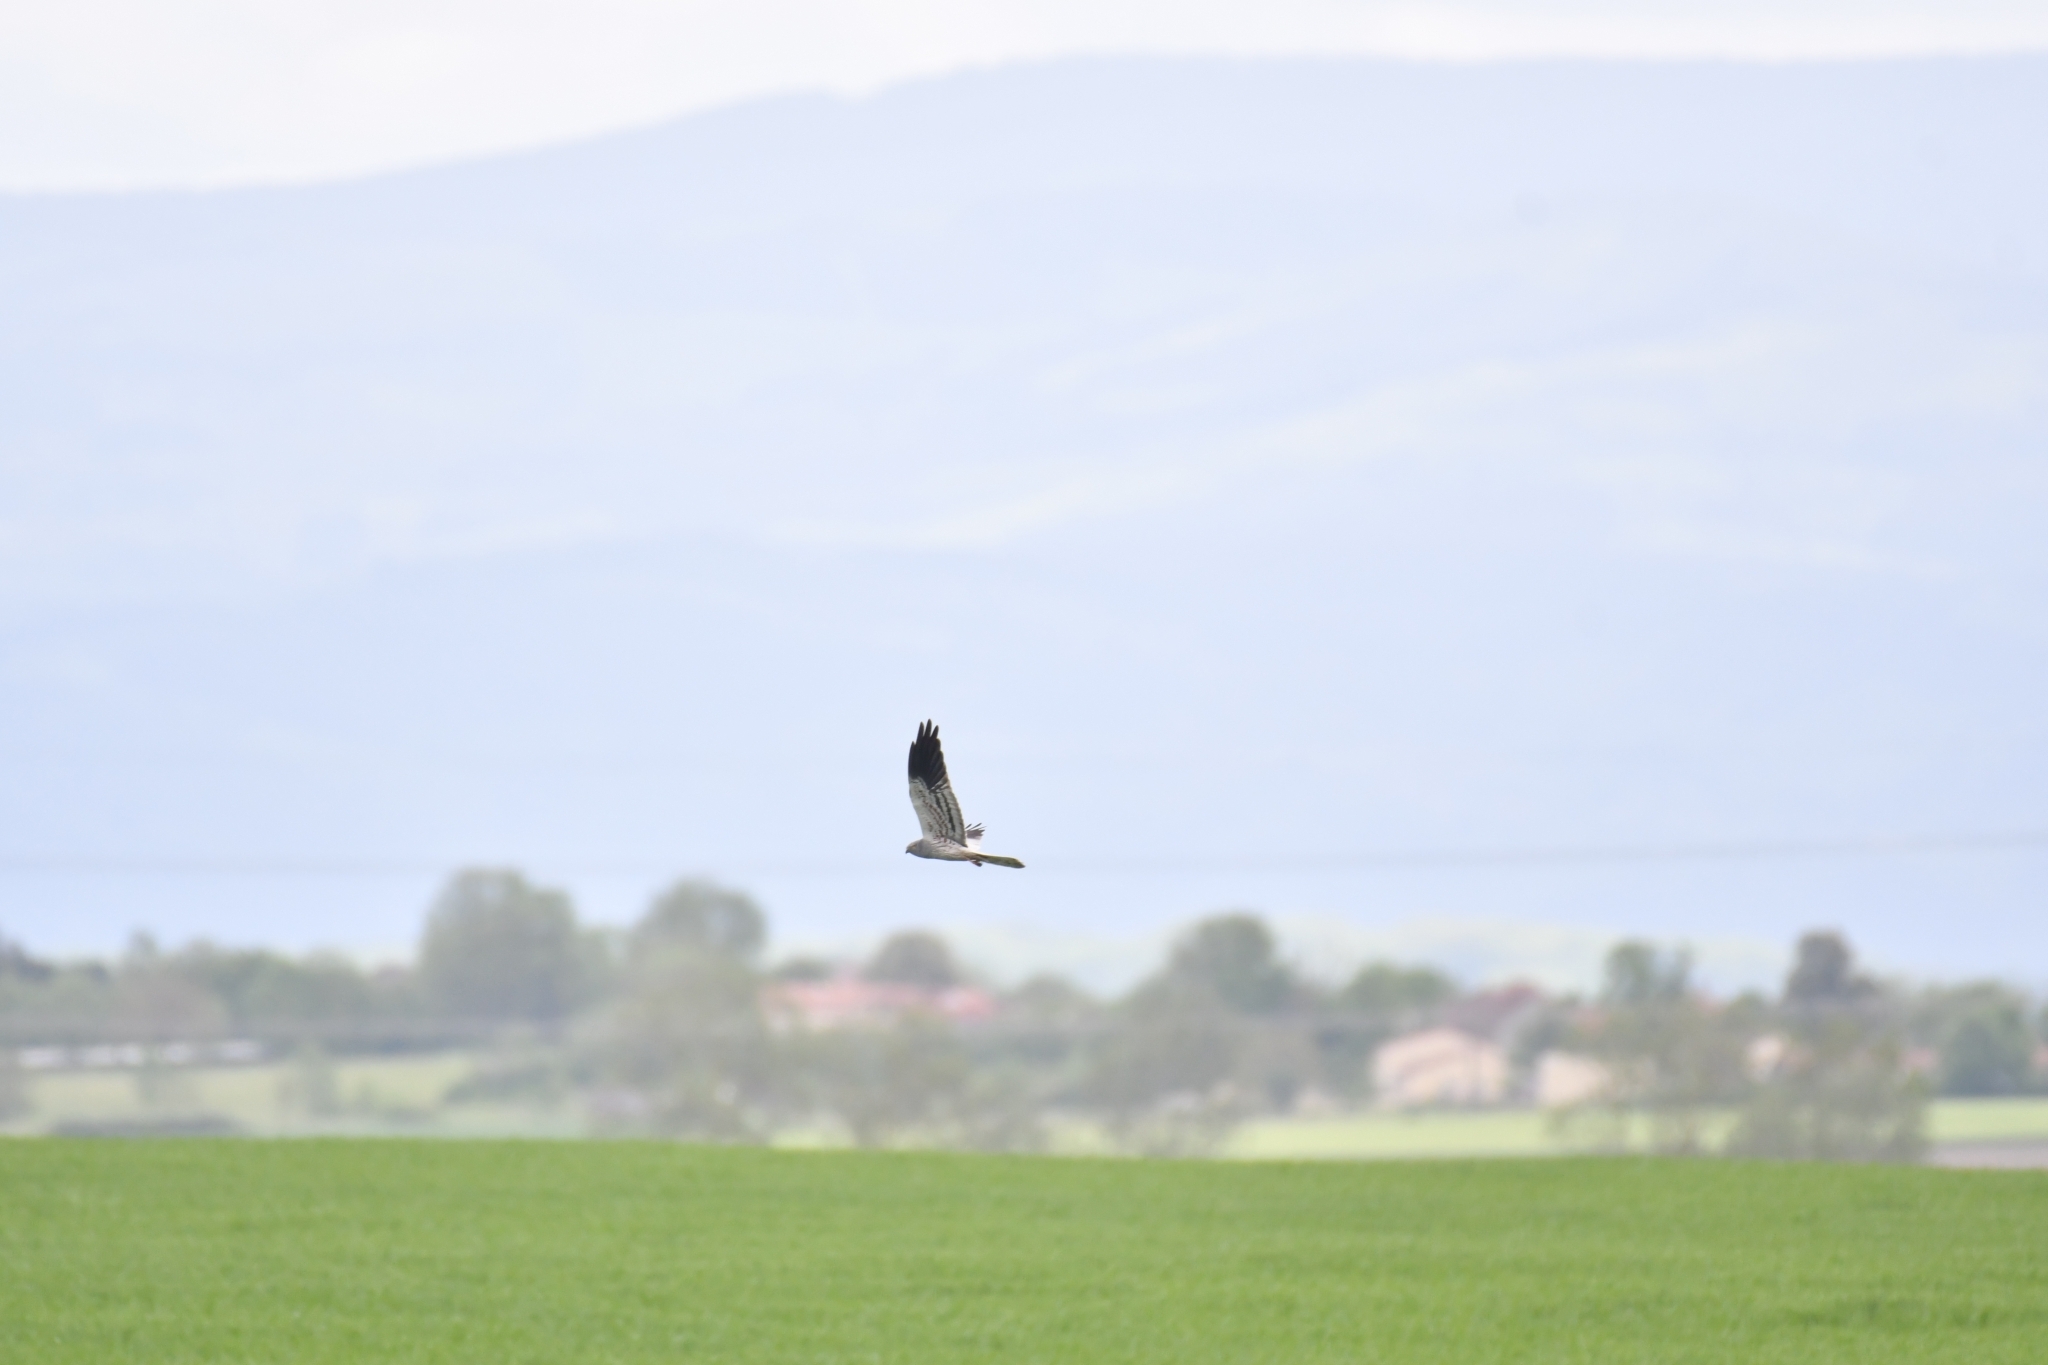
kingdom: Animalia
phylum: Chordata
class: Aves
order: Accipitriformes
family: Accipitridae
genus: Circus
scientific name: Circus pygargus
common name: Montagu's harrier
